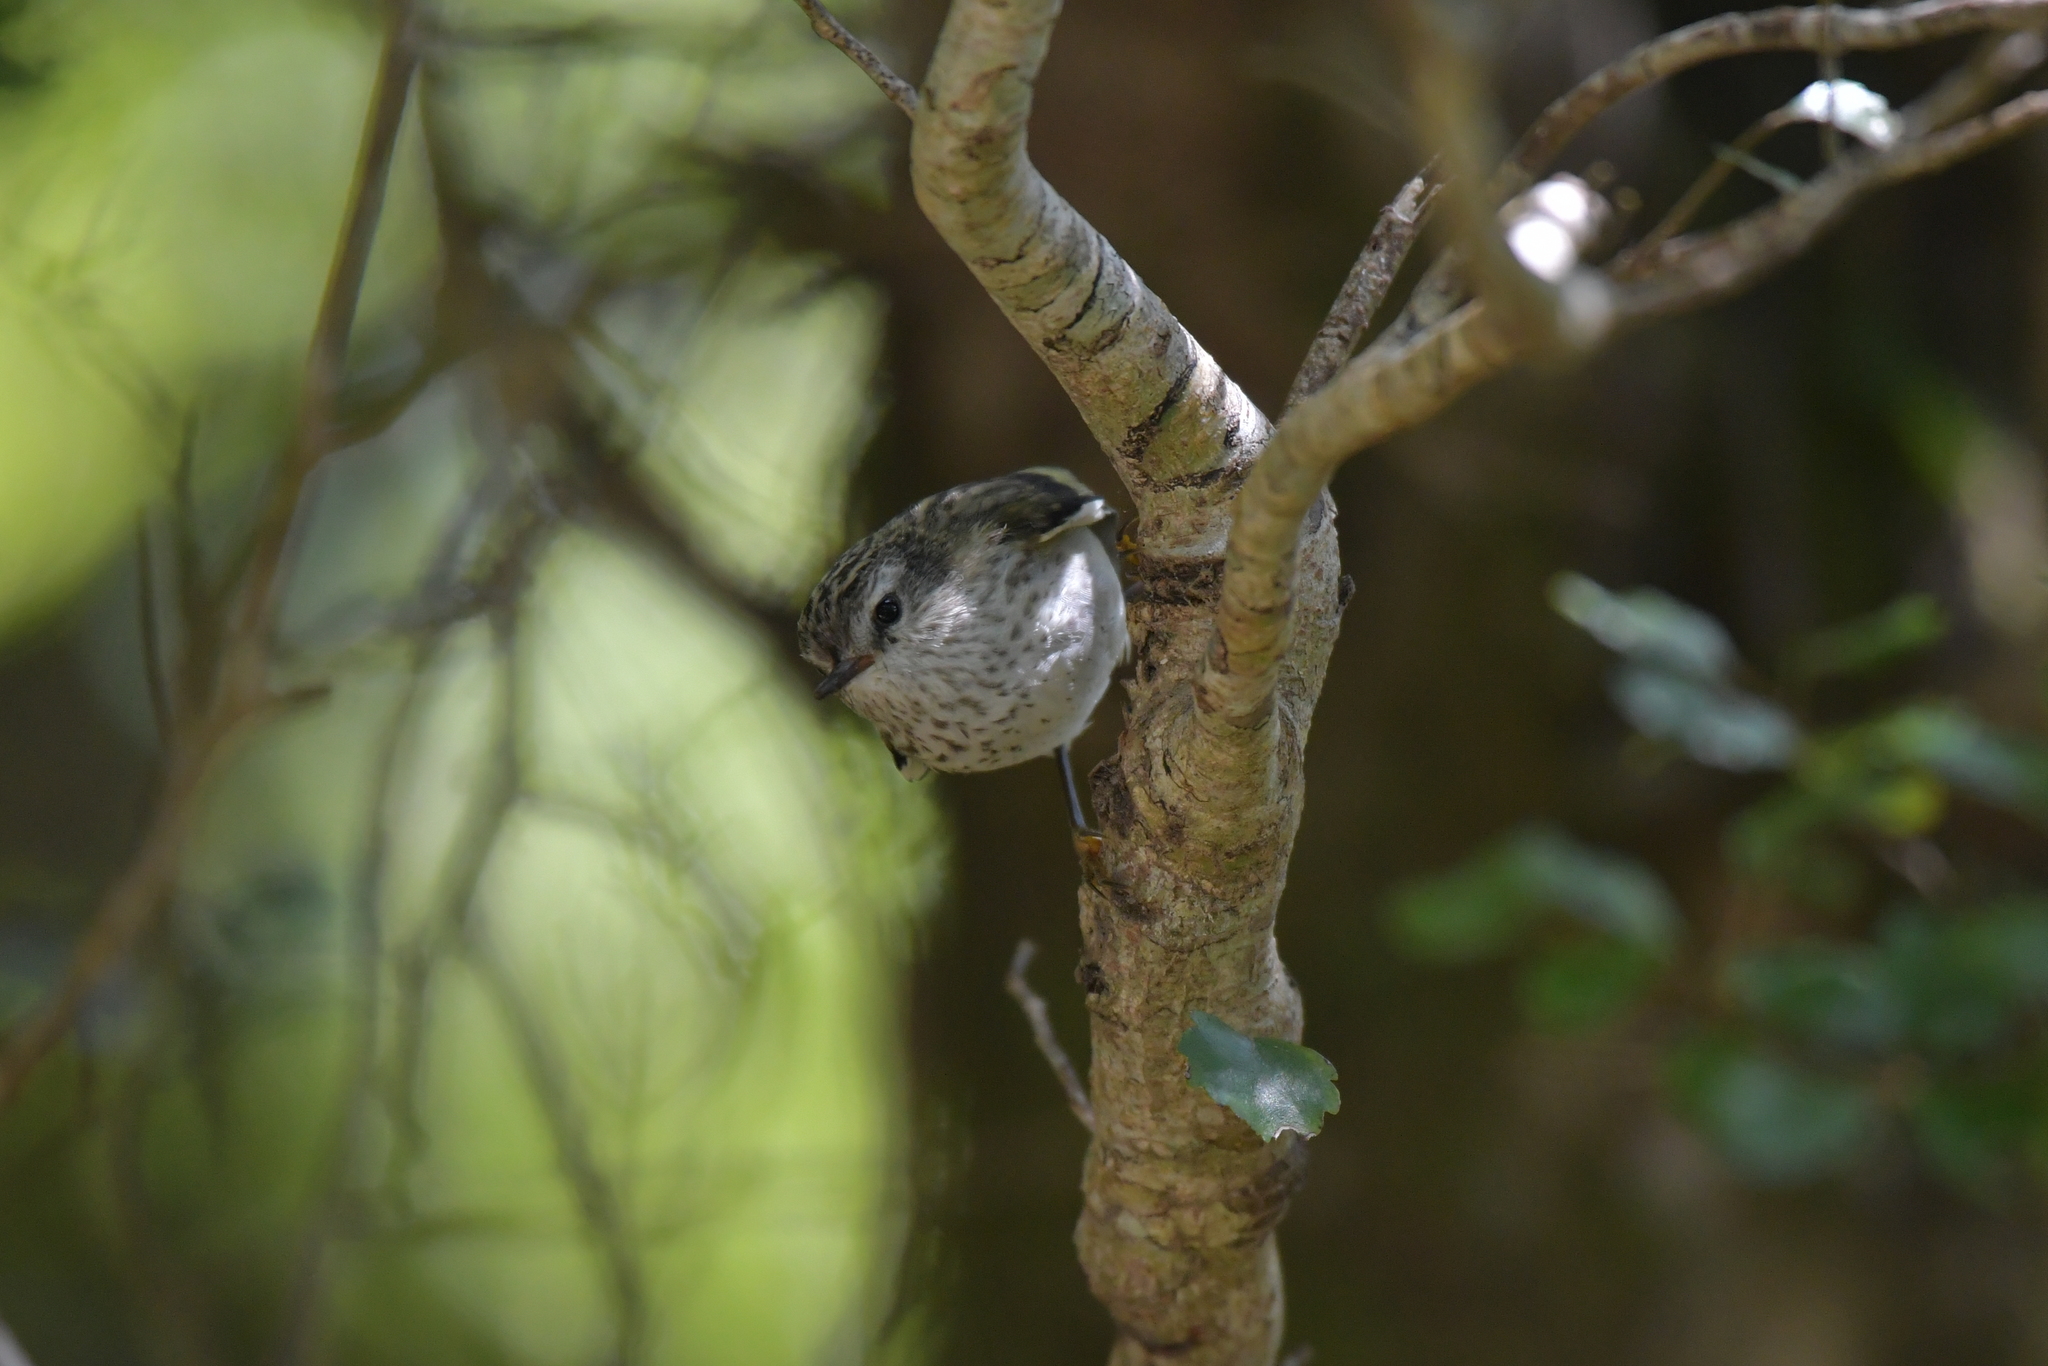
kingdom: Animalia
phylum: Chordata
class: Aves
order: Passeriformes
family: Acanthisittidae
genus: Acanthisitta
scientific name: Acanthisitta chloris
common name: Rifleman
